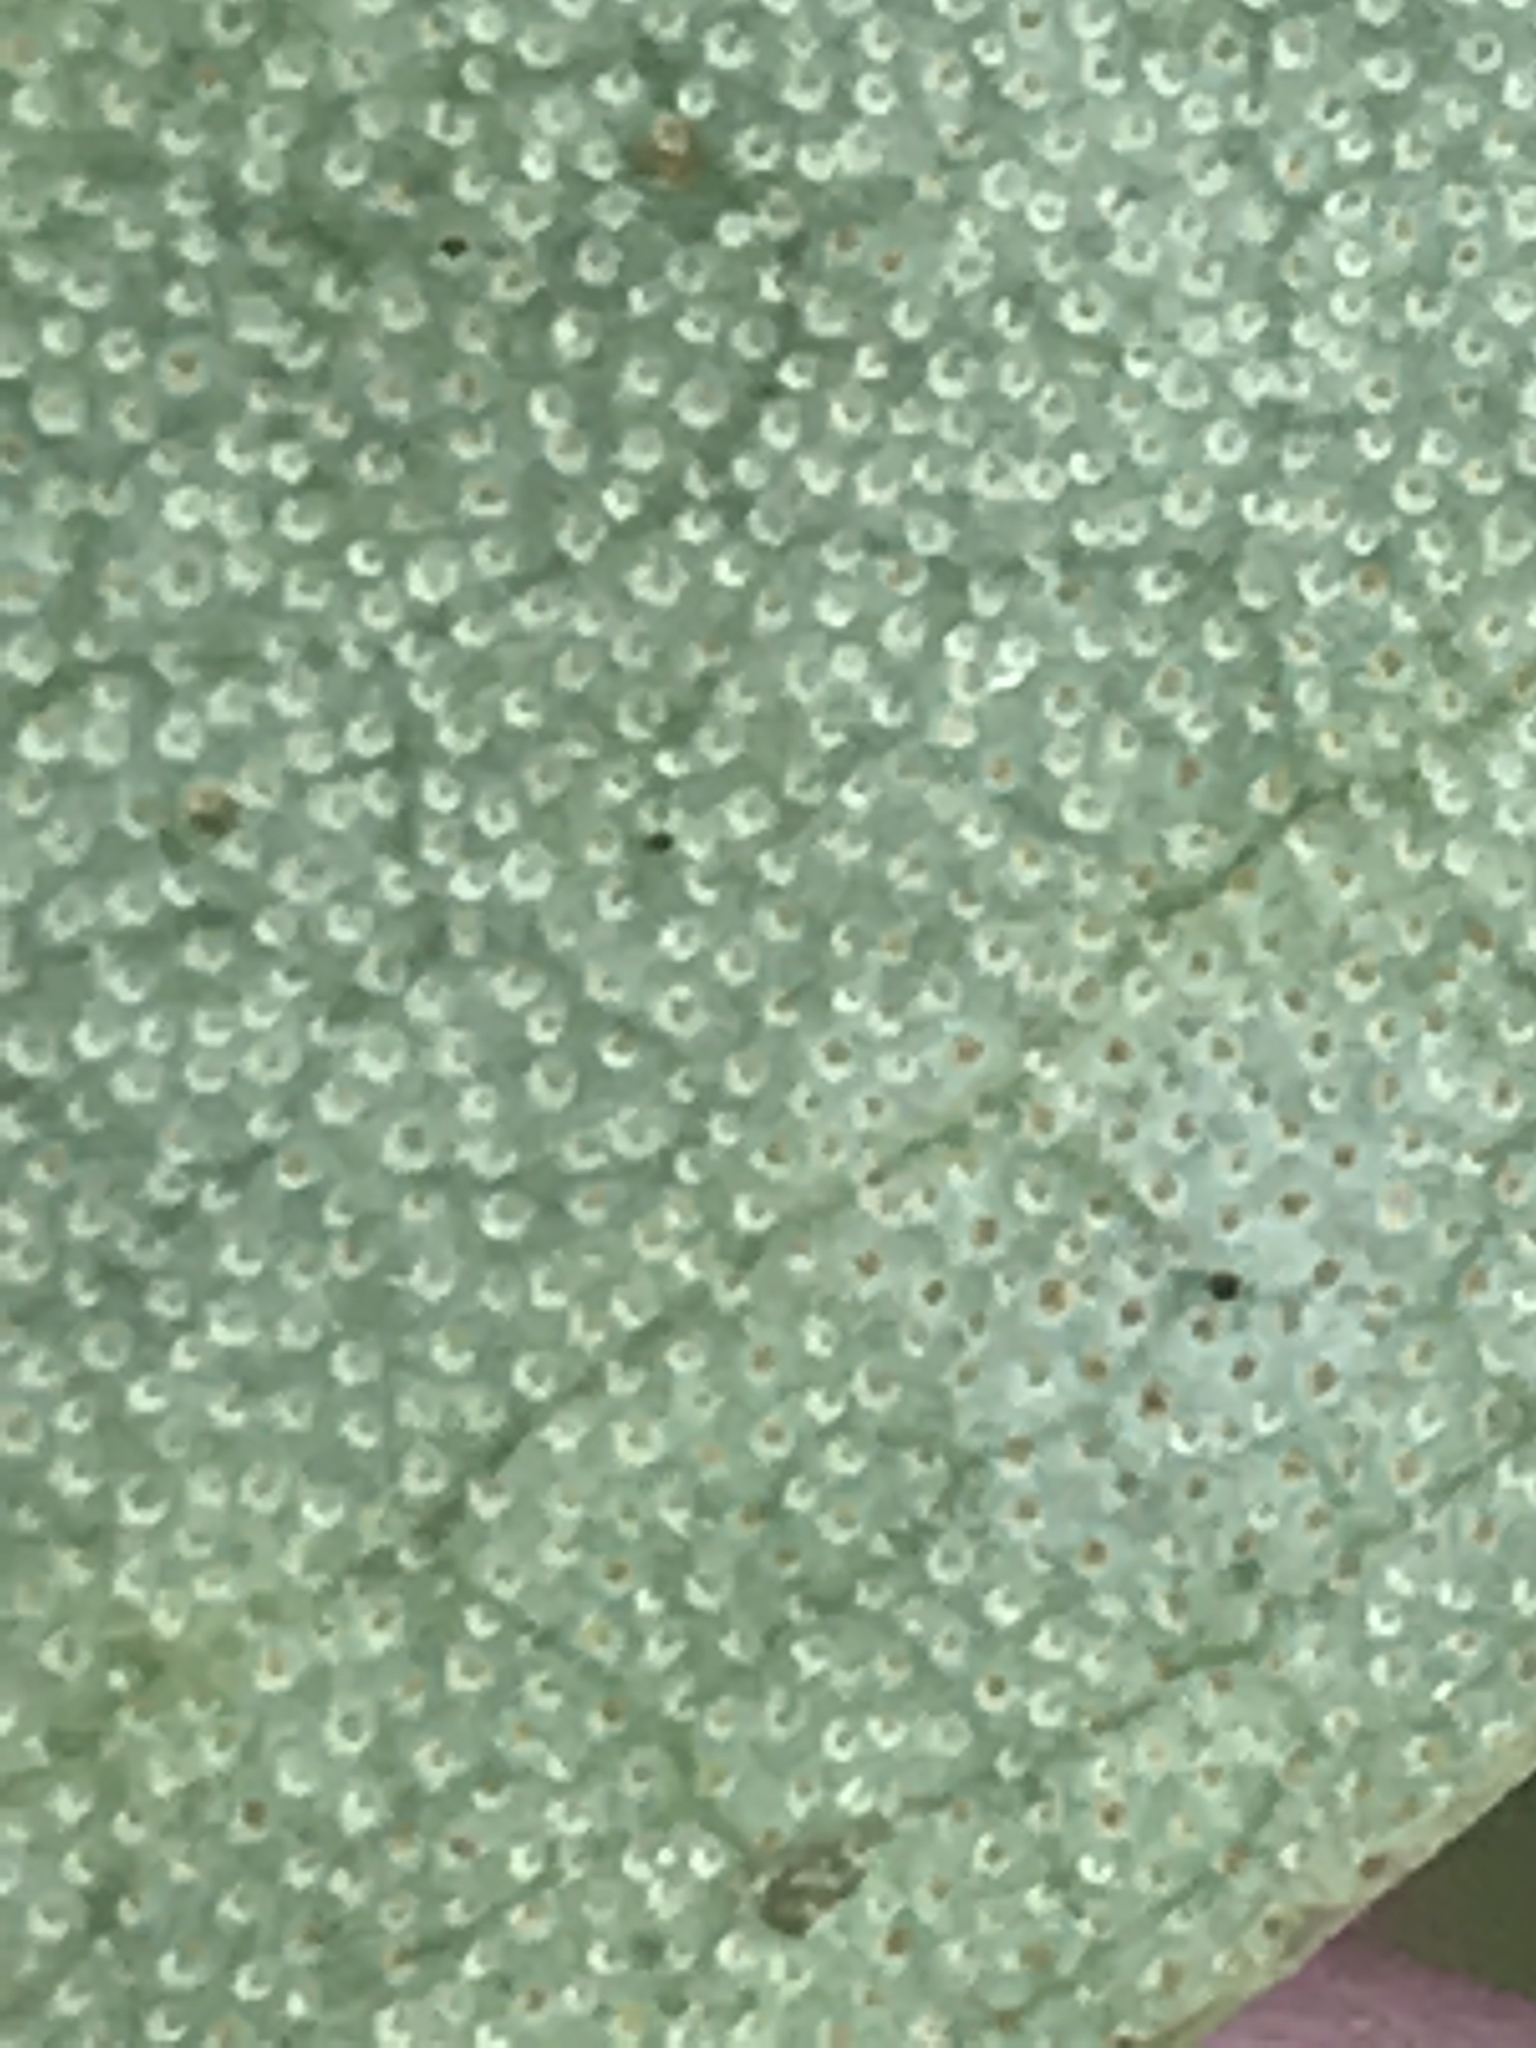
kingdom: Plantae
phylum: Tracheophyta
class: Magnoliopsida
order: Ericales
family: Ericaceae
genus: Rhododendron
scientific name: Rhododendron minus
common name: Piedmont rhododendron
